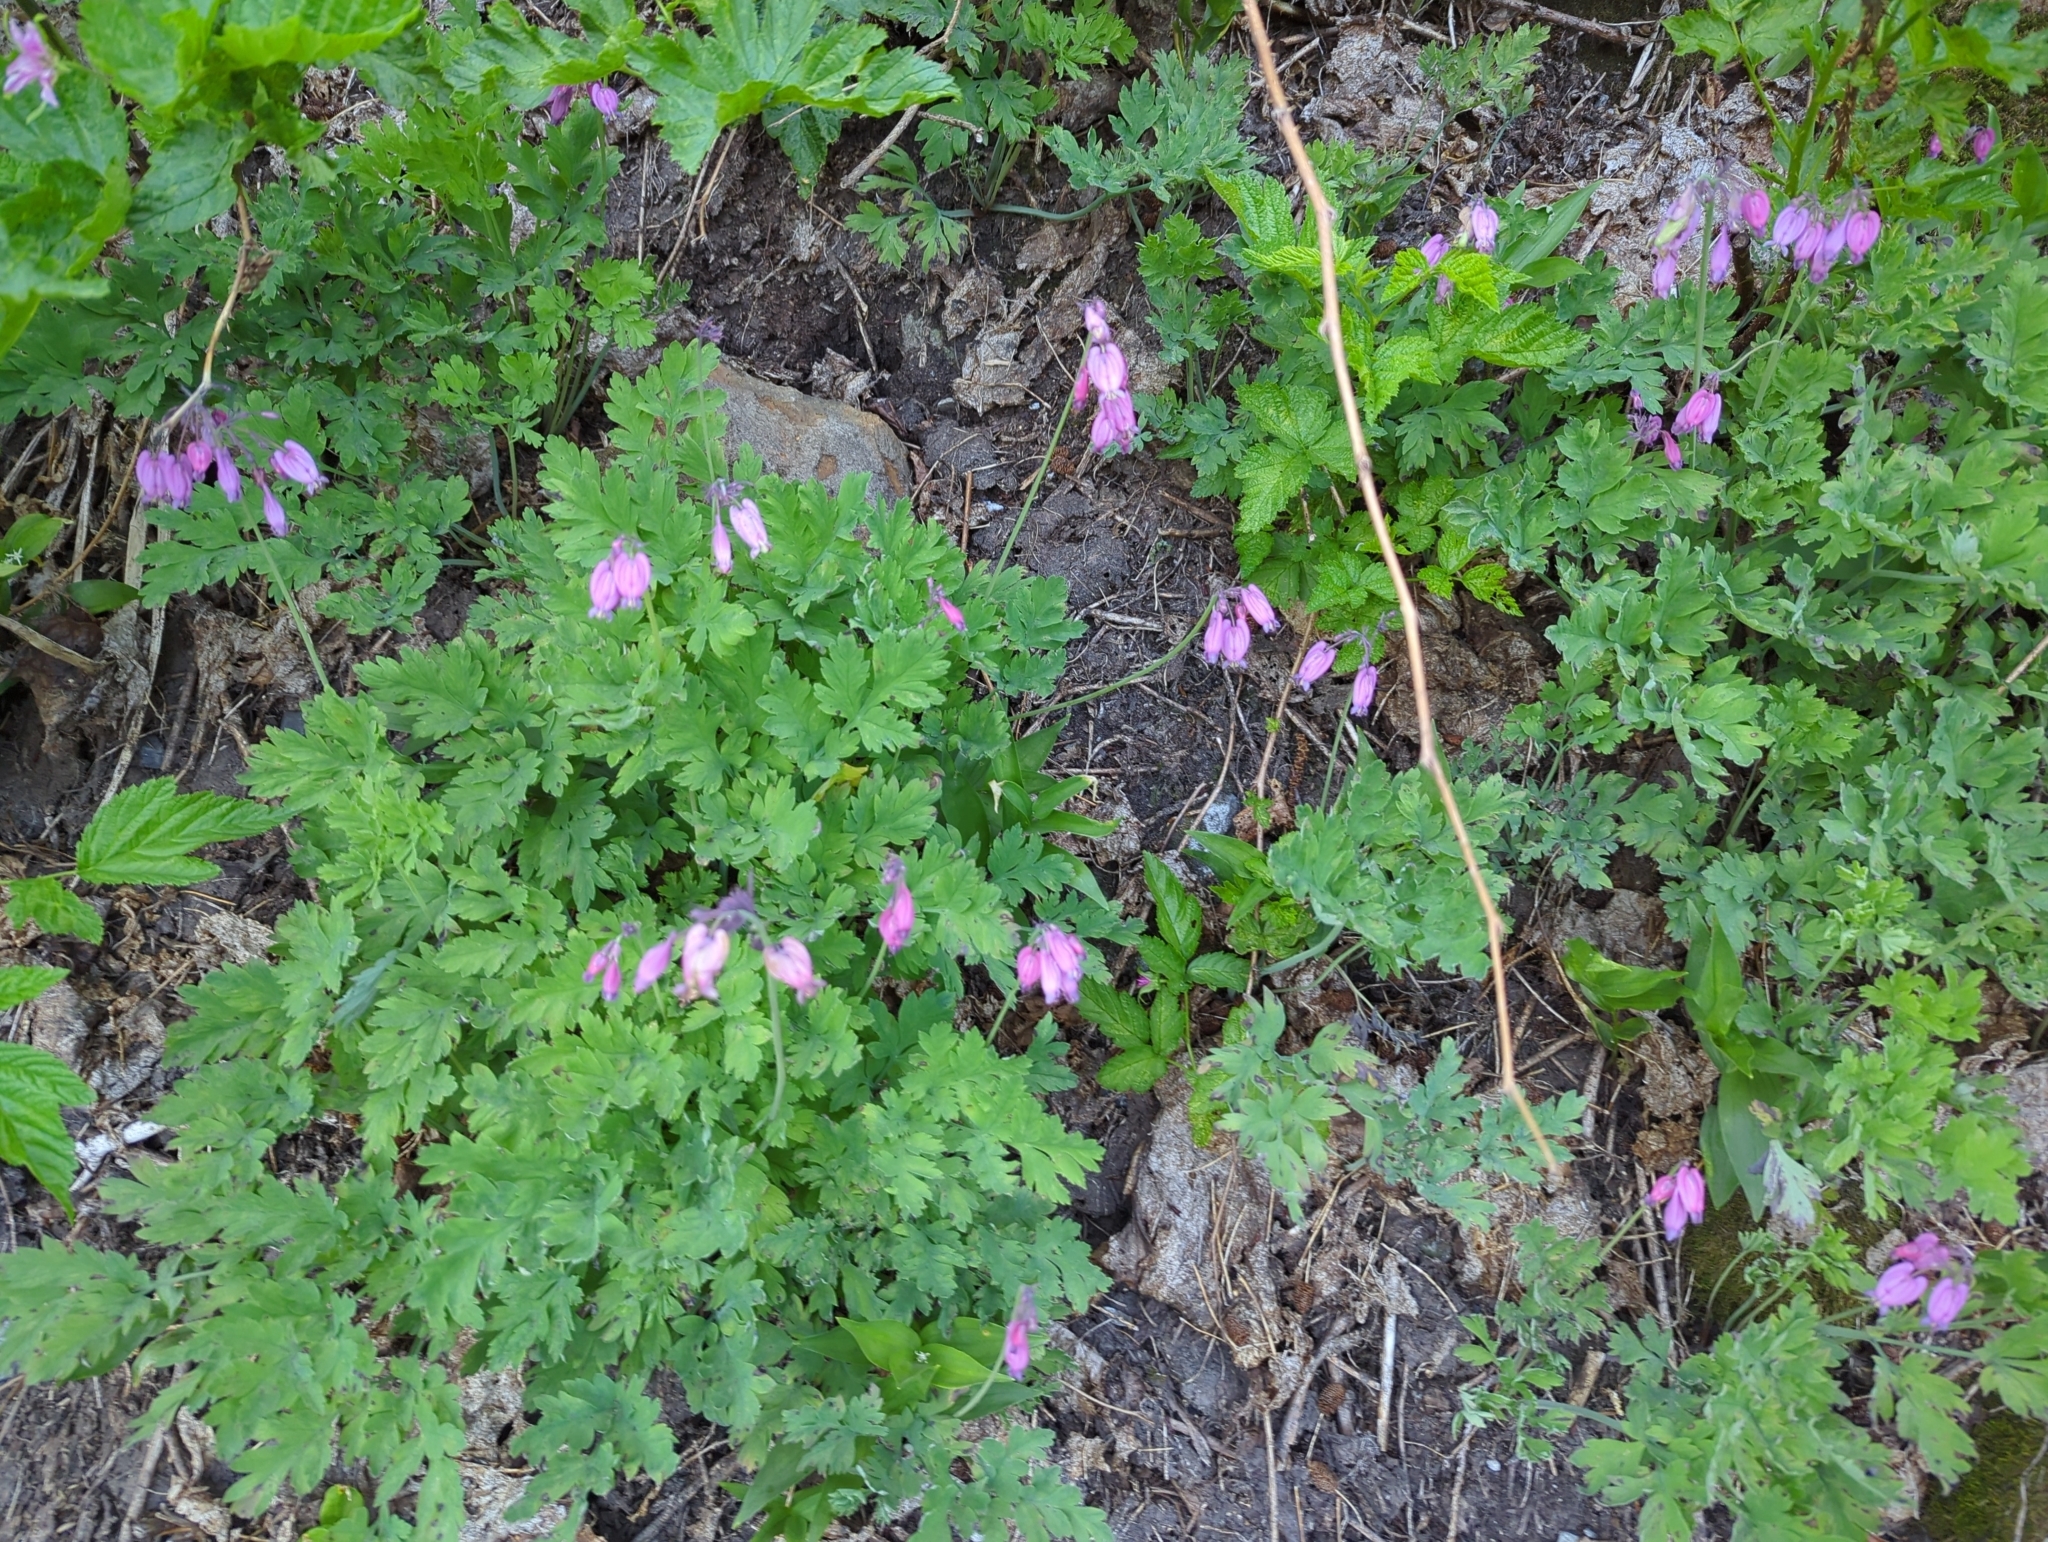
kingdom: Plantae
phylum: Tracheophyta
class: Magnoliopsida
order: Ranunculales
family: Papaveraceae
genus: Dicentra
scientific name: Dicentra formosa
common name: Bleeding-heart
